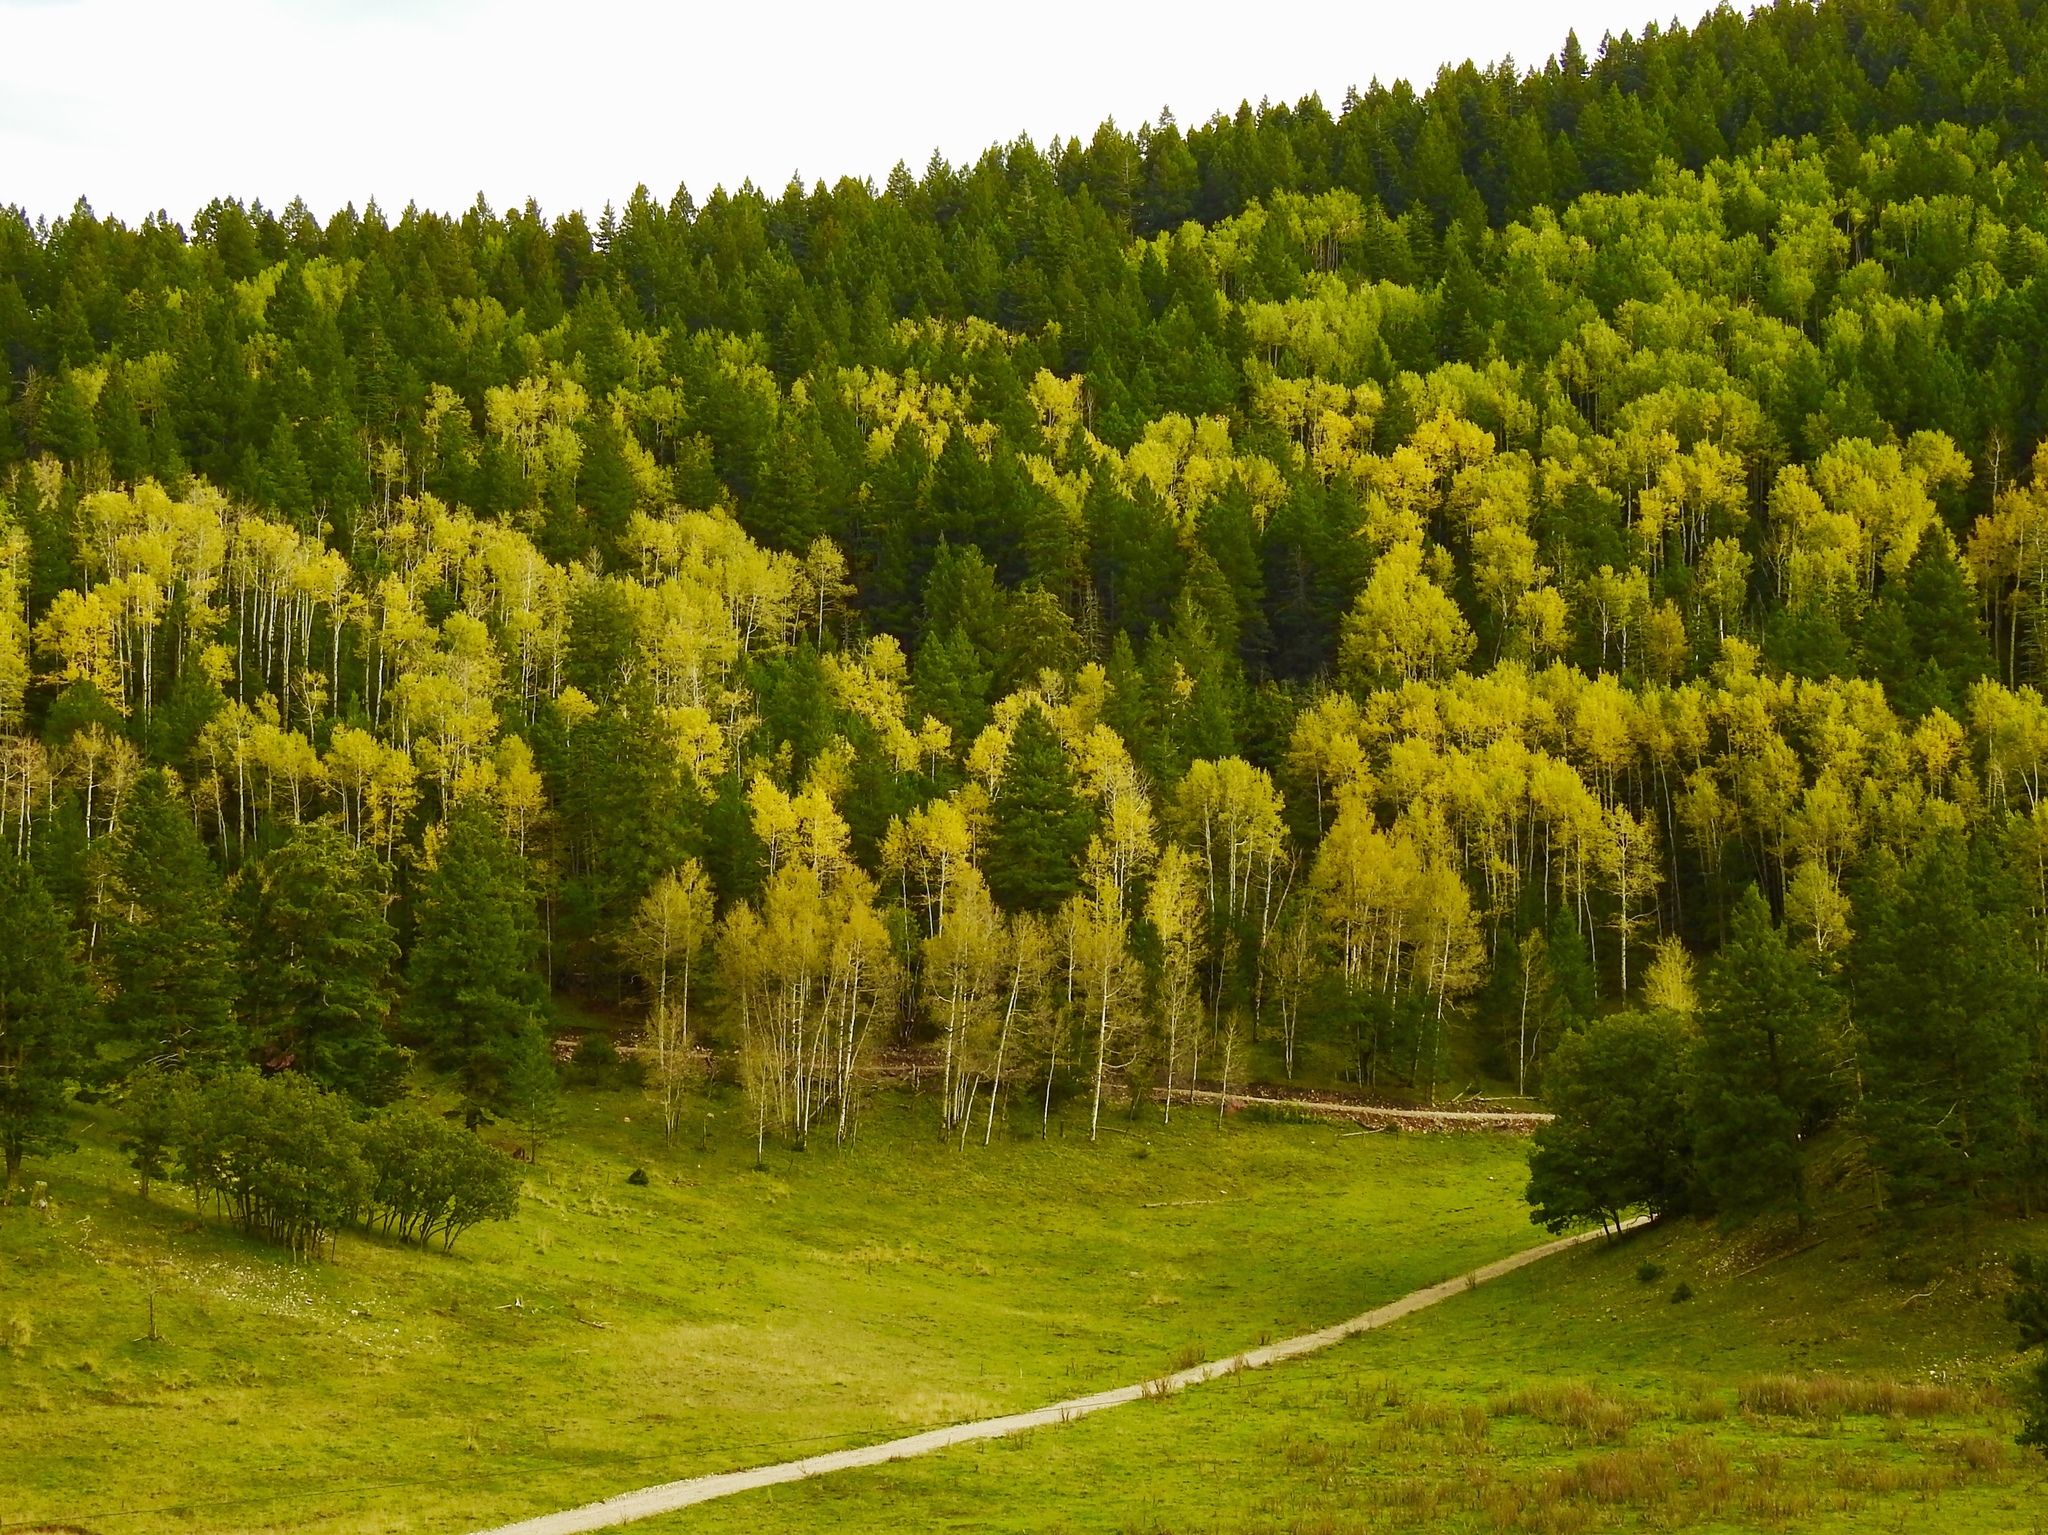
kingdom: Plantae
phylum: Tracheophyta
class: Magnoliopsida
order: Malpighiales
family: Salicaceae
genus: Populus
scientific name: Populus tremuloides
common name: Quaking aspen
